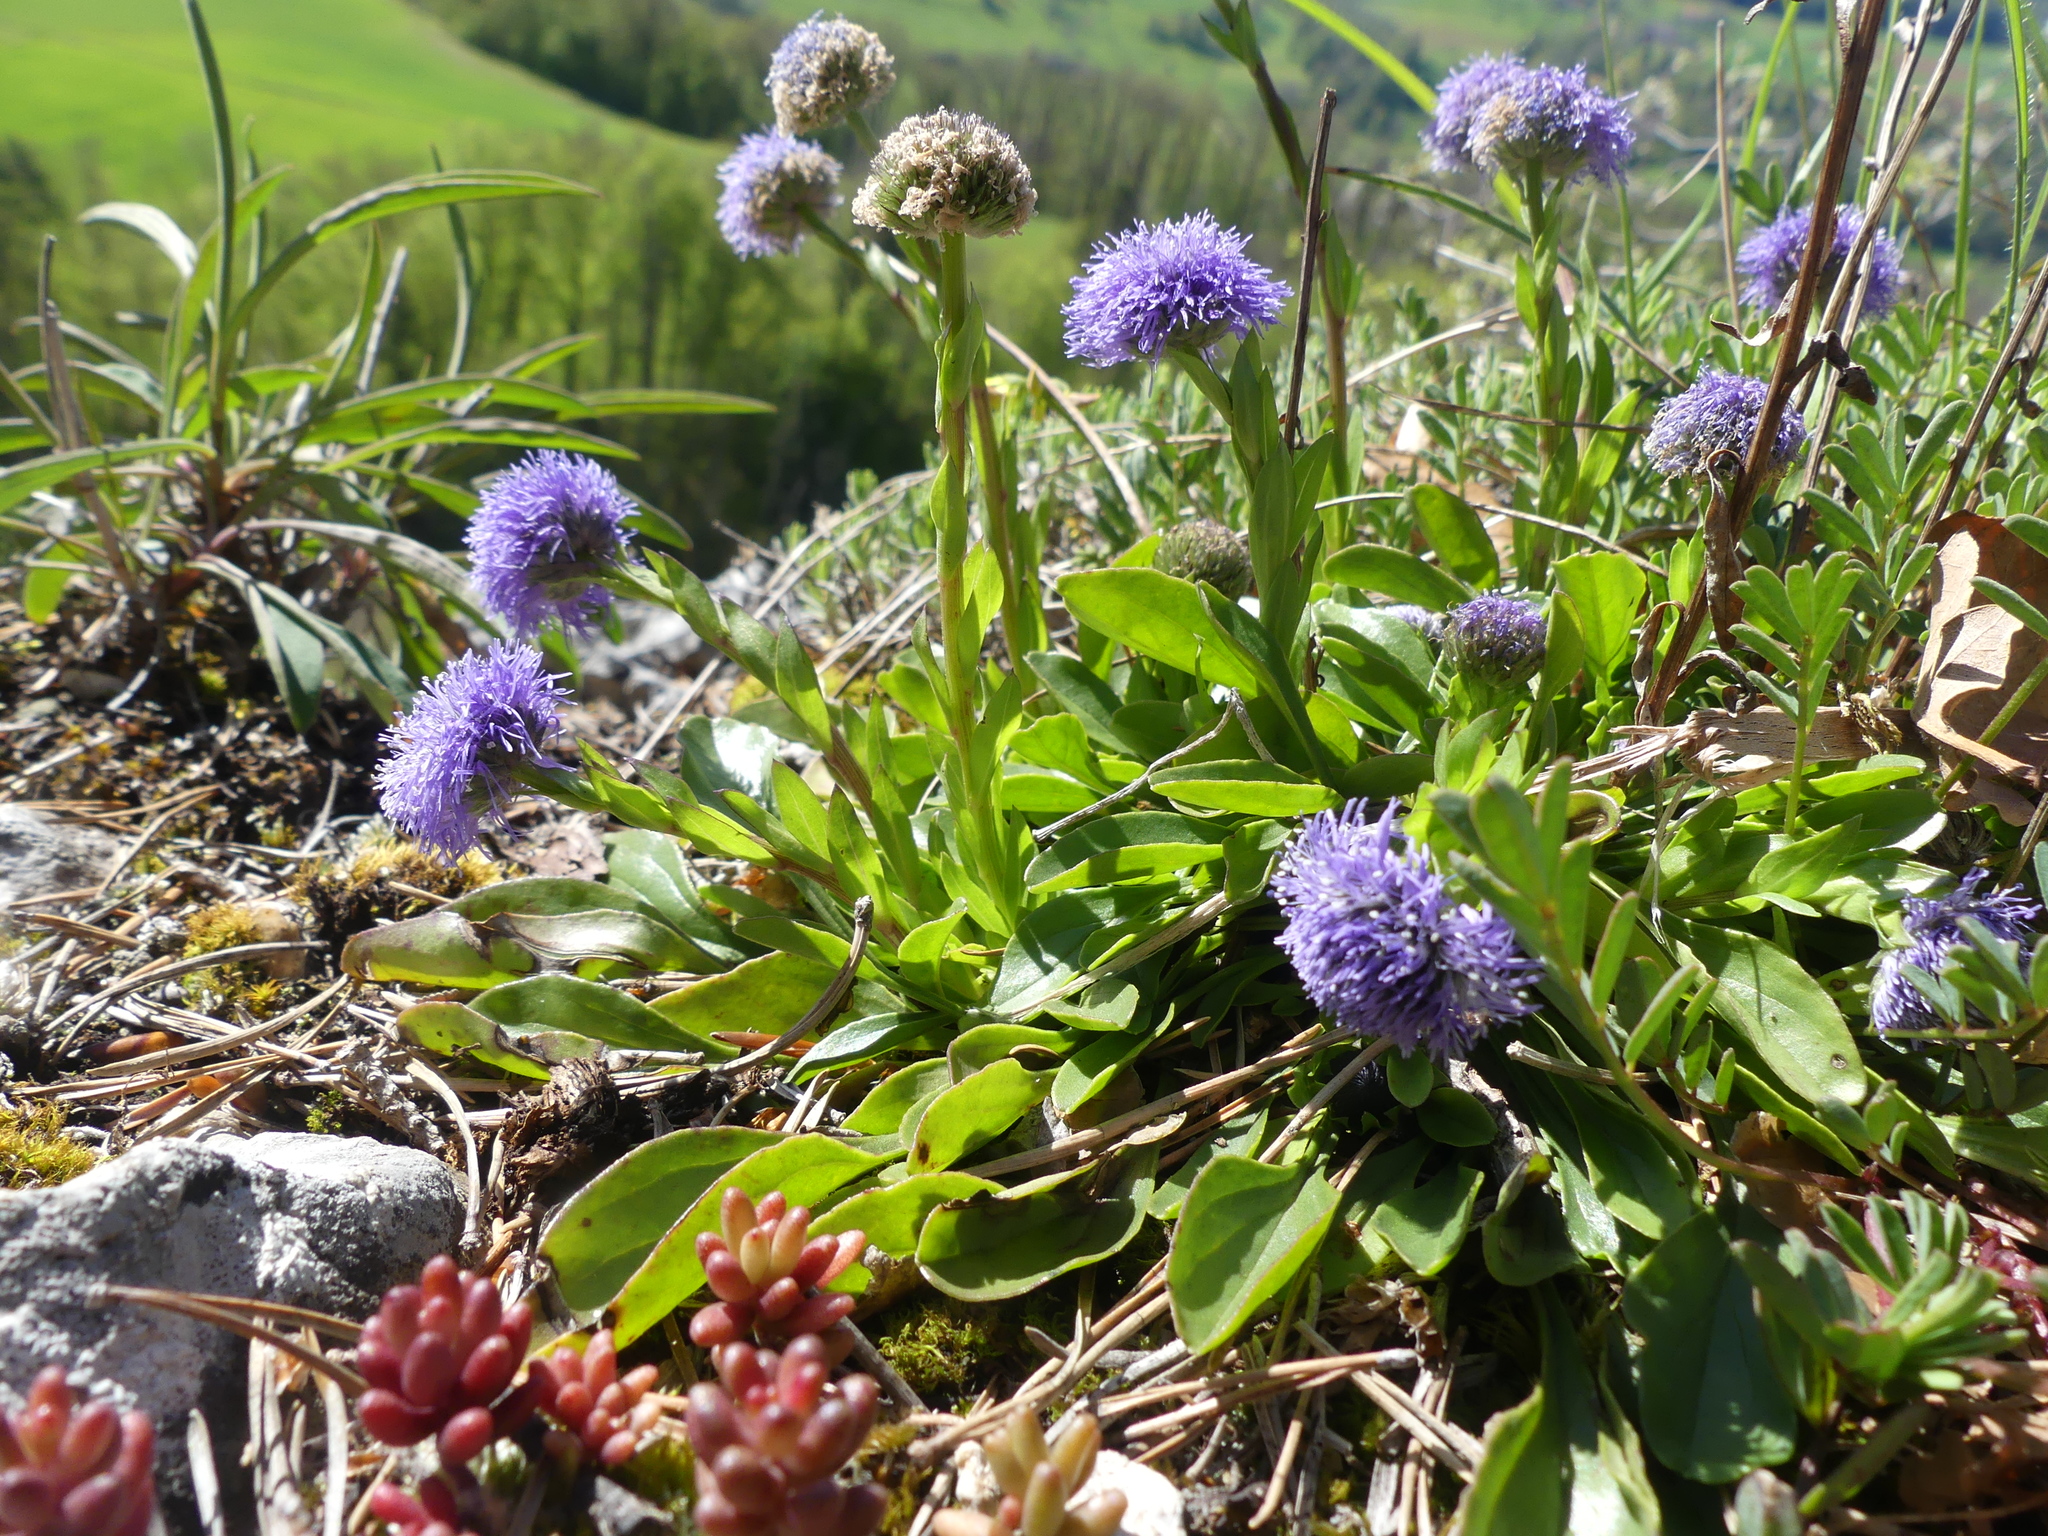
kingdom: Plantae
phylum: Tracheophyta
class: Magnoliopsida
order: Lamiales
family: Plantaginaceae
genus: Globularia
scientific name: Globularia bisnagarica
